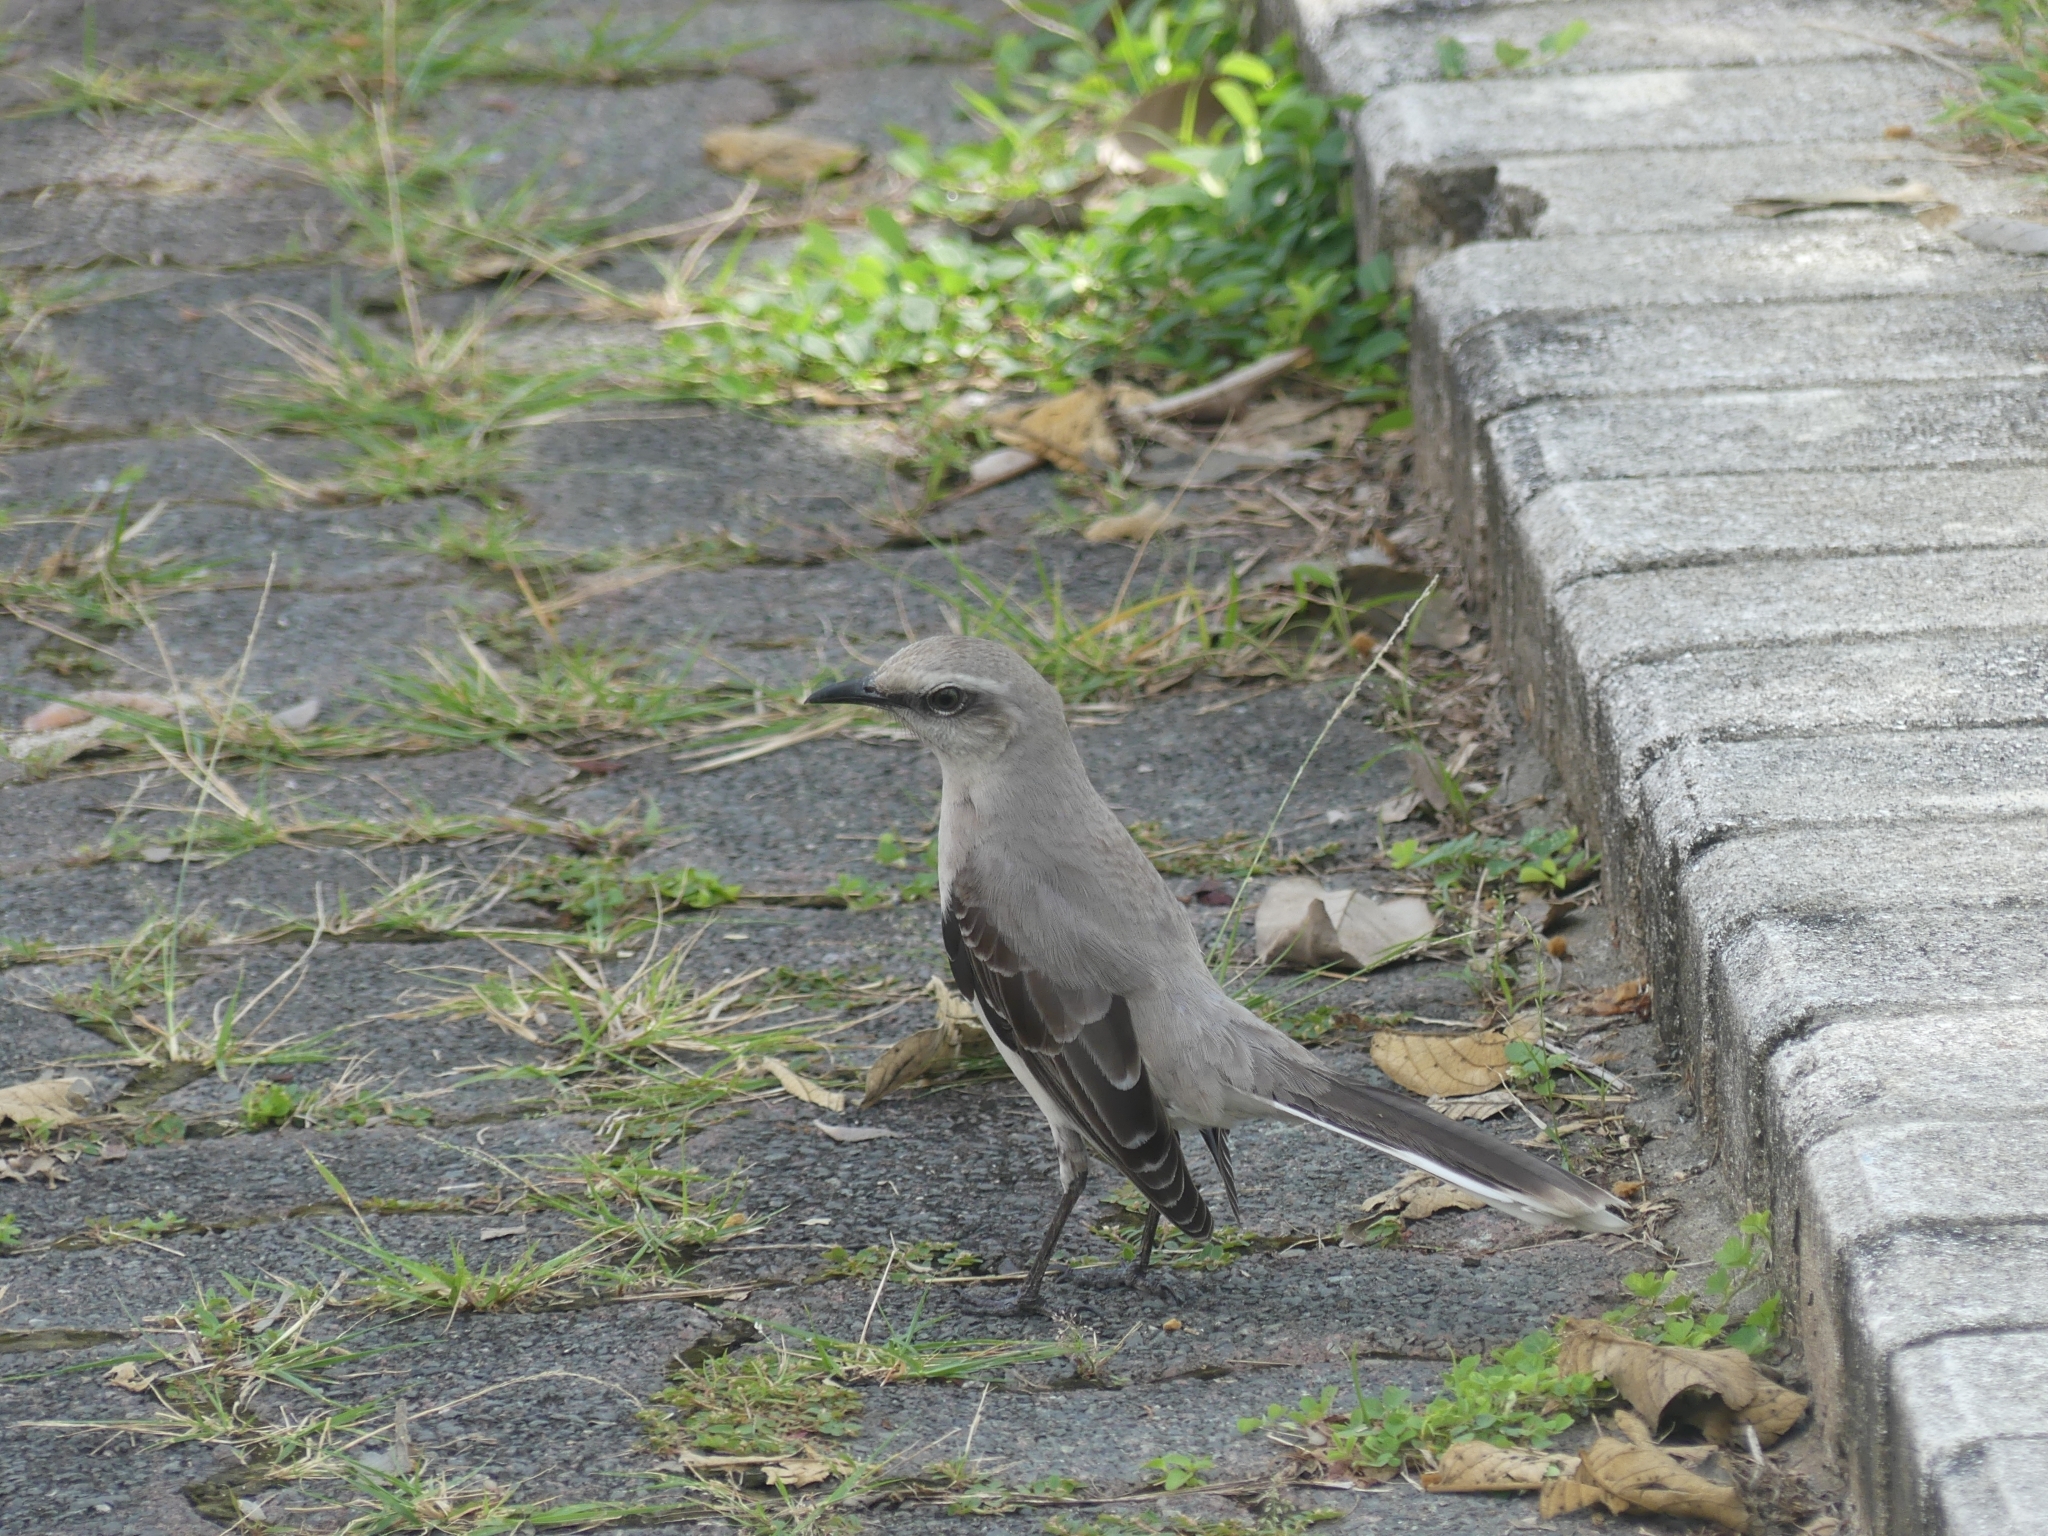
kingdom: Animalia
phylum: Chordata
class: Aves
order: Passeriformes
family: Mimidae
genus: Mimus
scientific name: Mimus gilvus
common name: Tropical mockingbird
